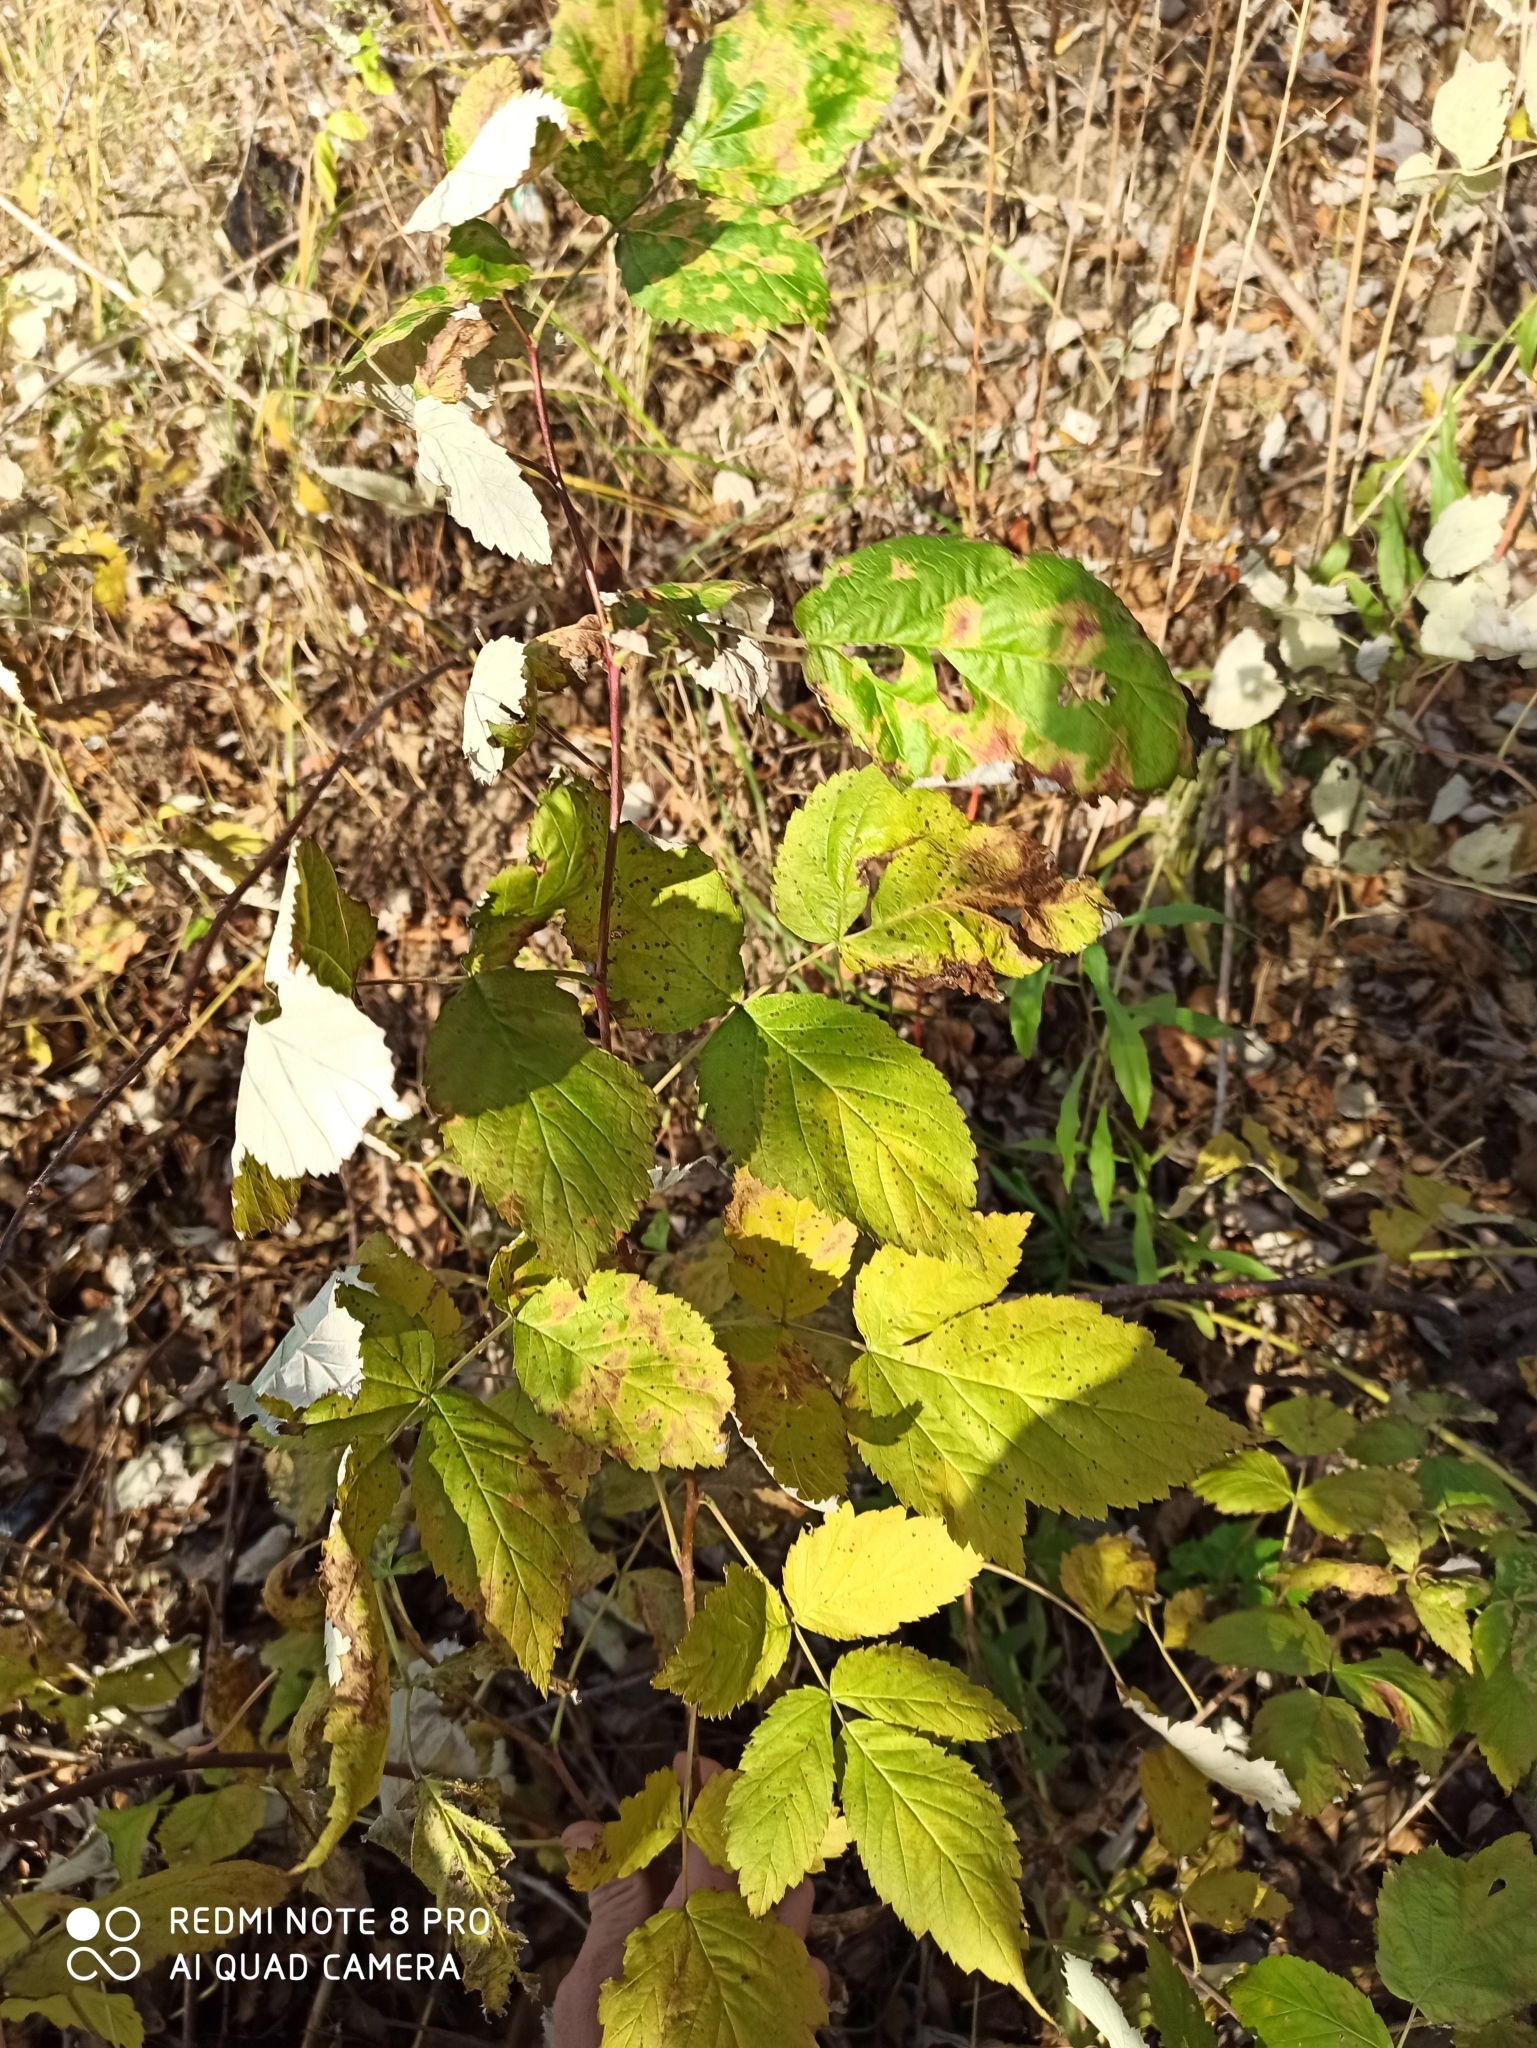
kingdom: Plantae
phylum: Tracheophyta
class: Magnoliopsida
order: Rosales
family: Rosaceae
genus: Rubus
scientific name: Rubus idaeus
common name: Raspberry
